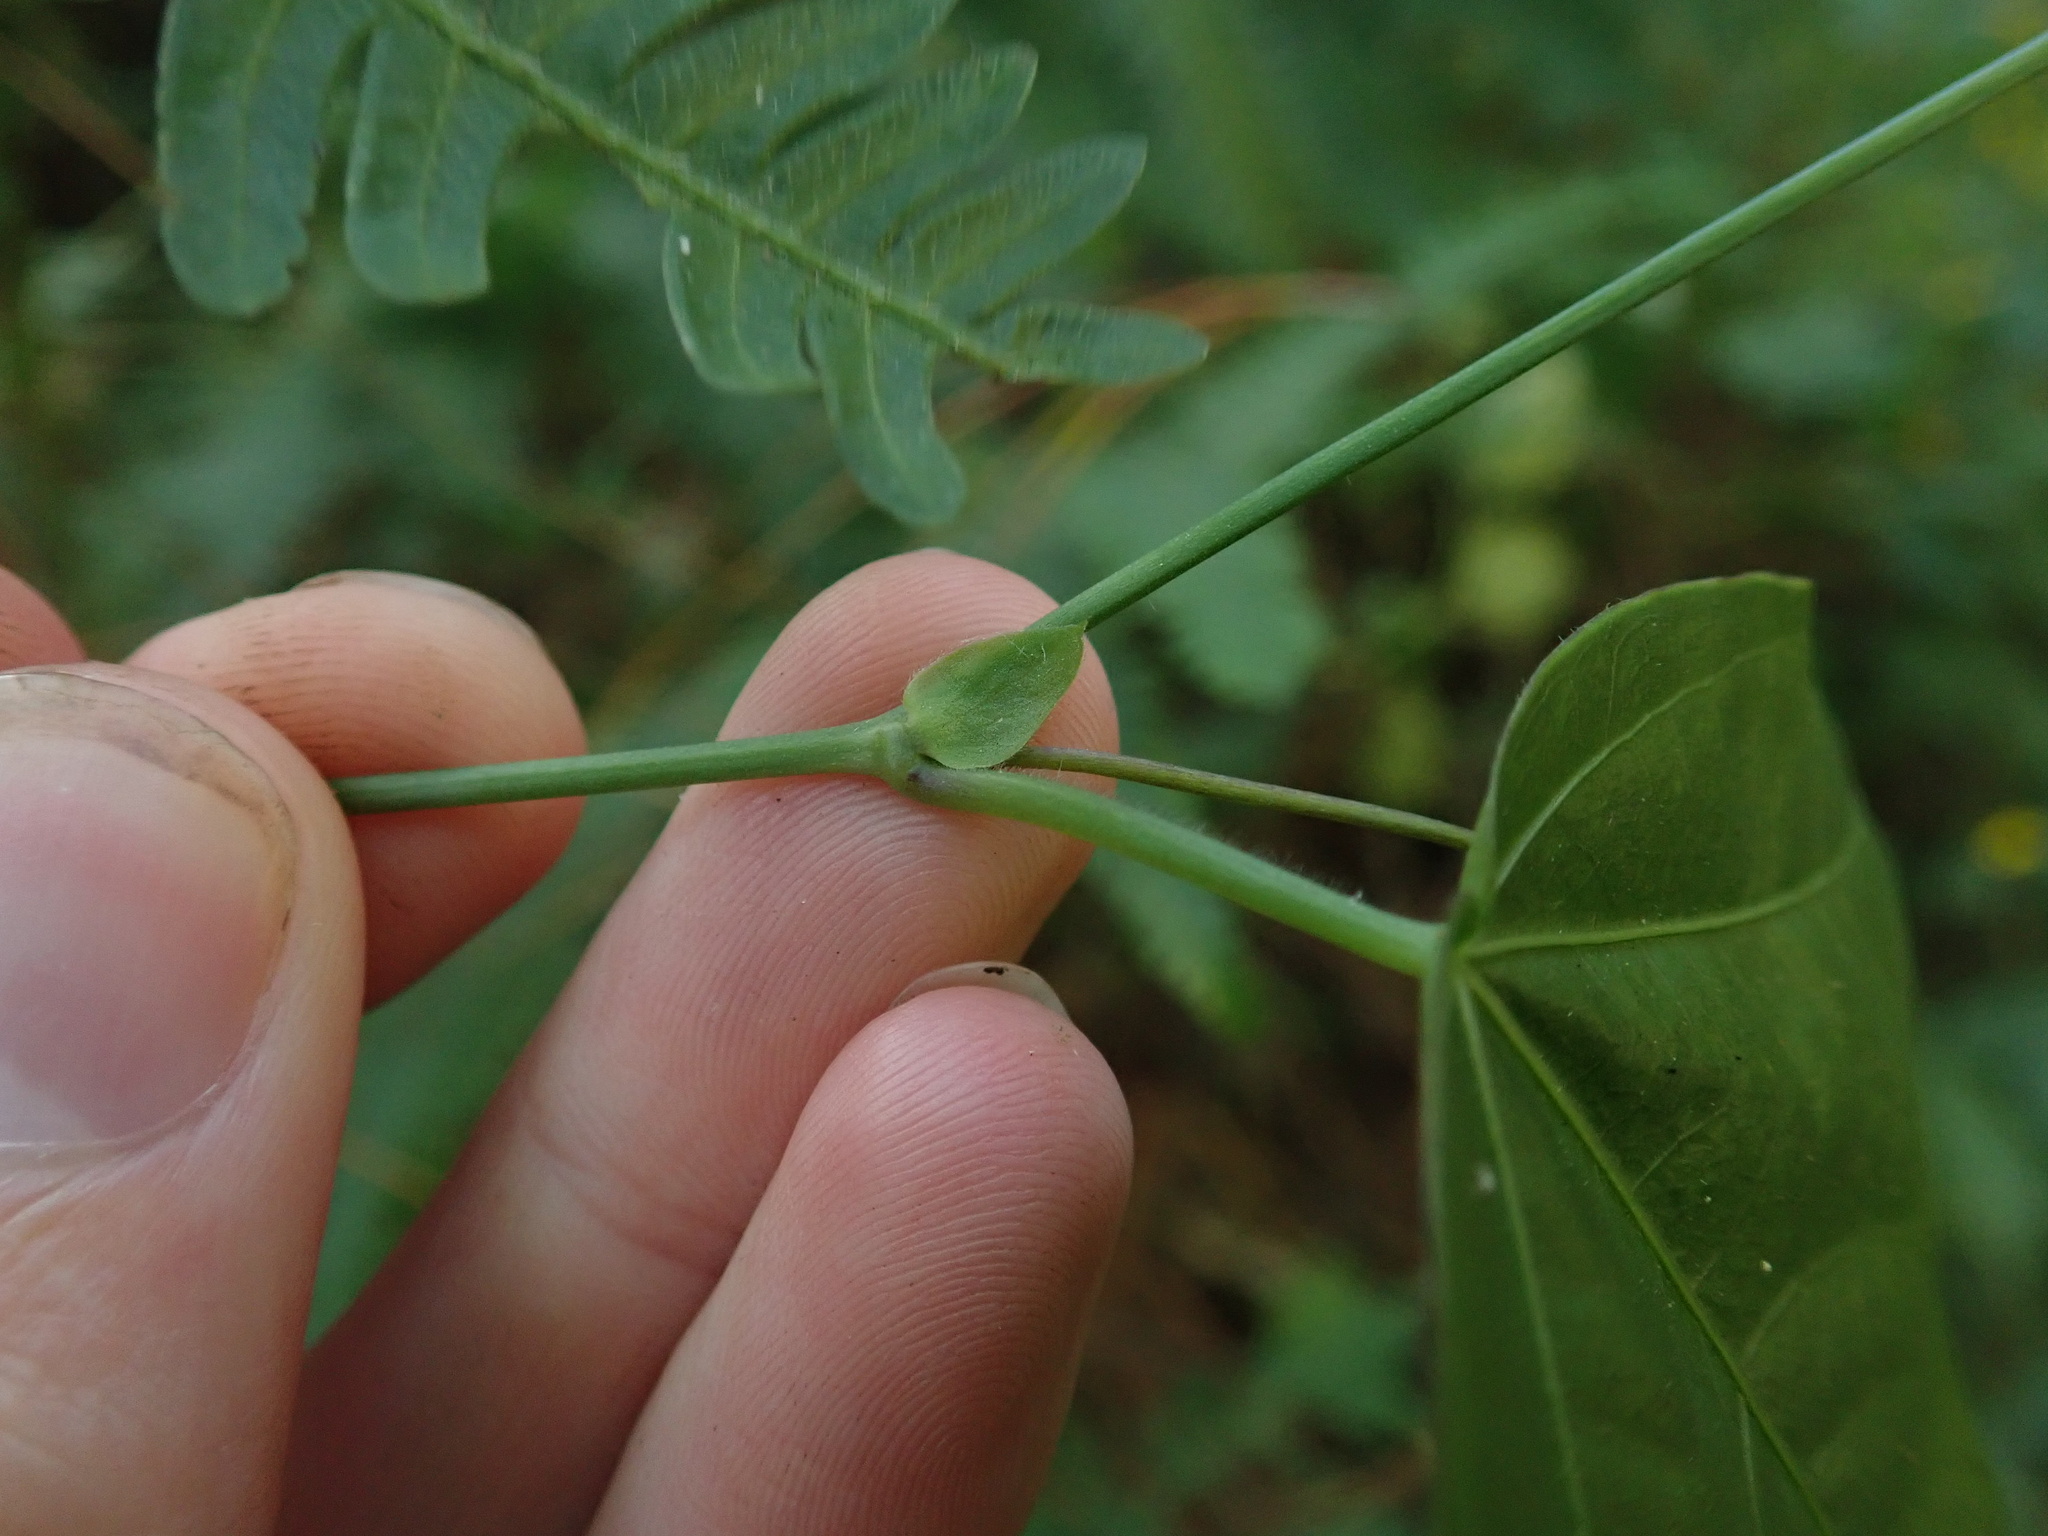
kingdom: Plantae
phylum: Tracheophyta
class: Magnoliopsida
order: Malpighiales
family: Passifloraceae
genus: Passiflora
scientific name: Passiflora eglandulosa
